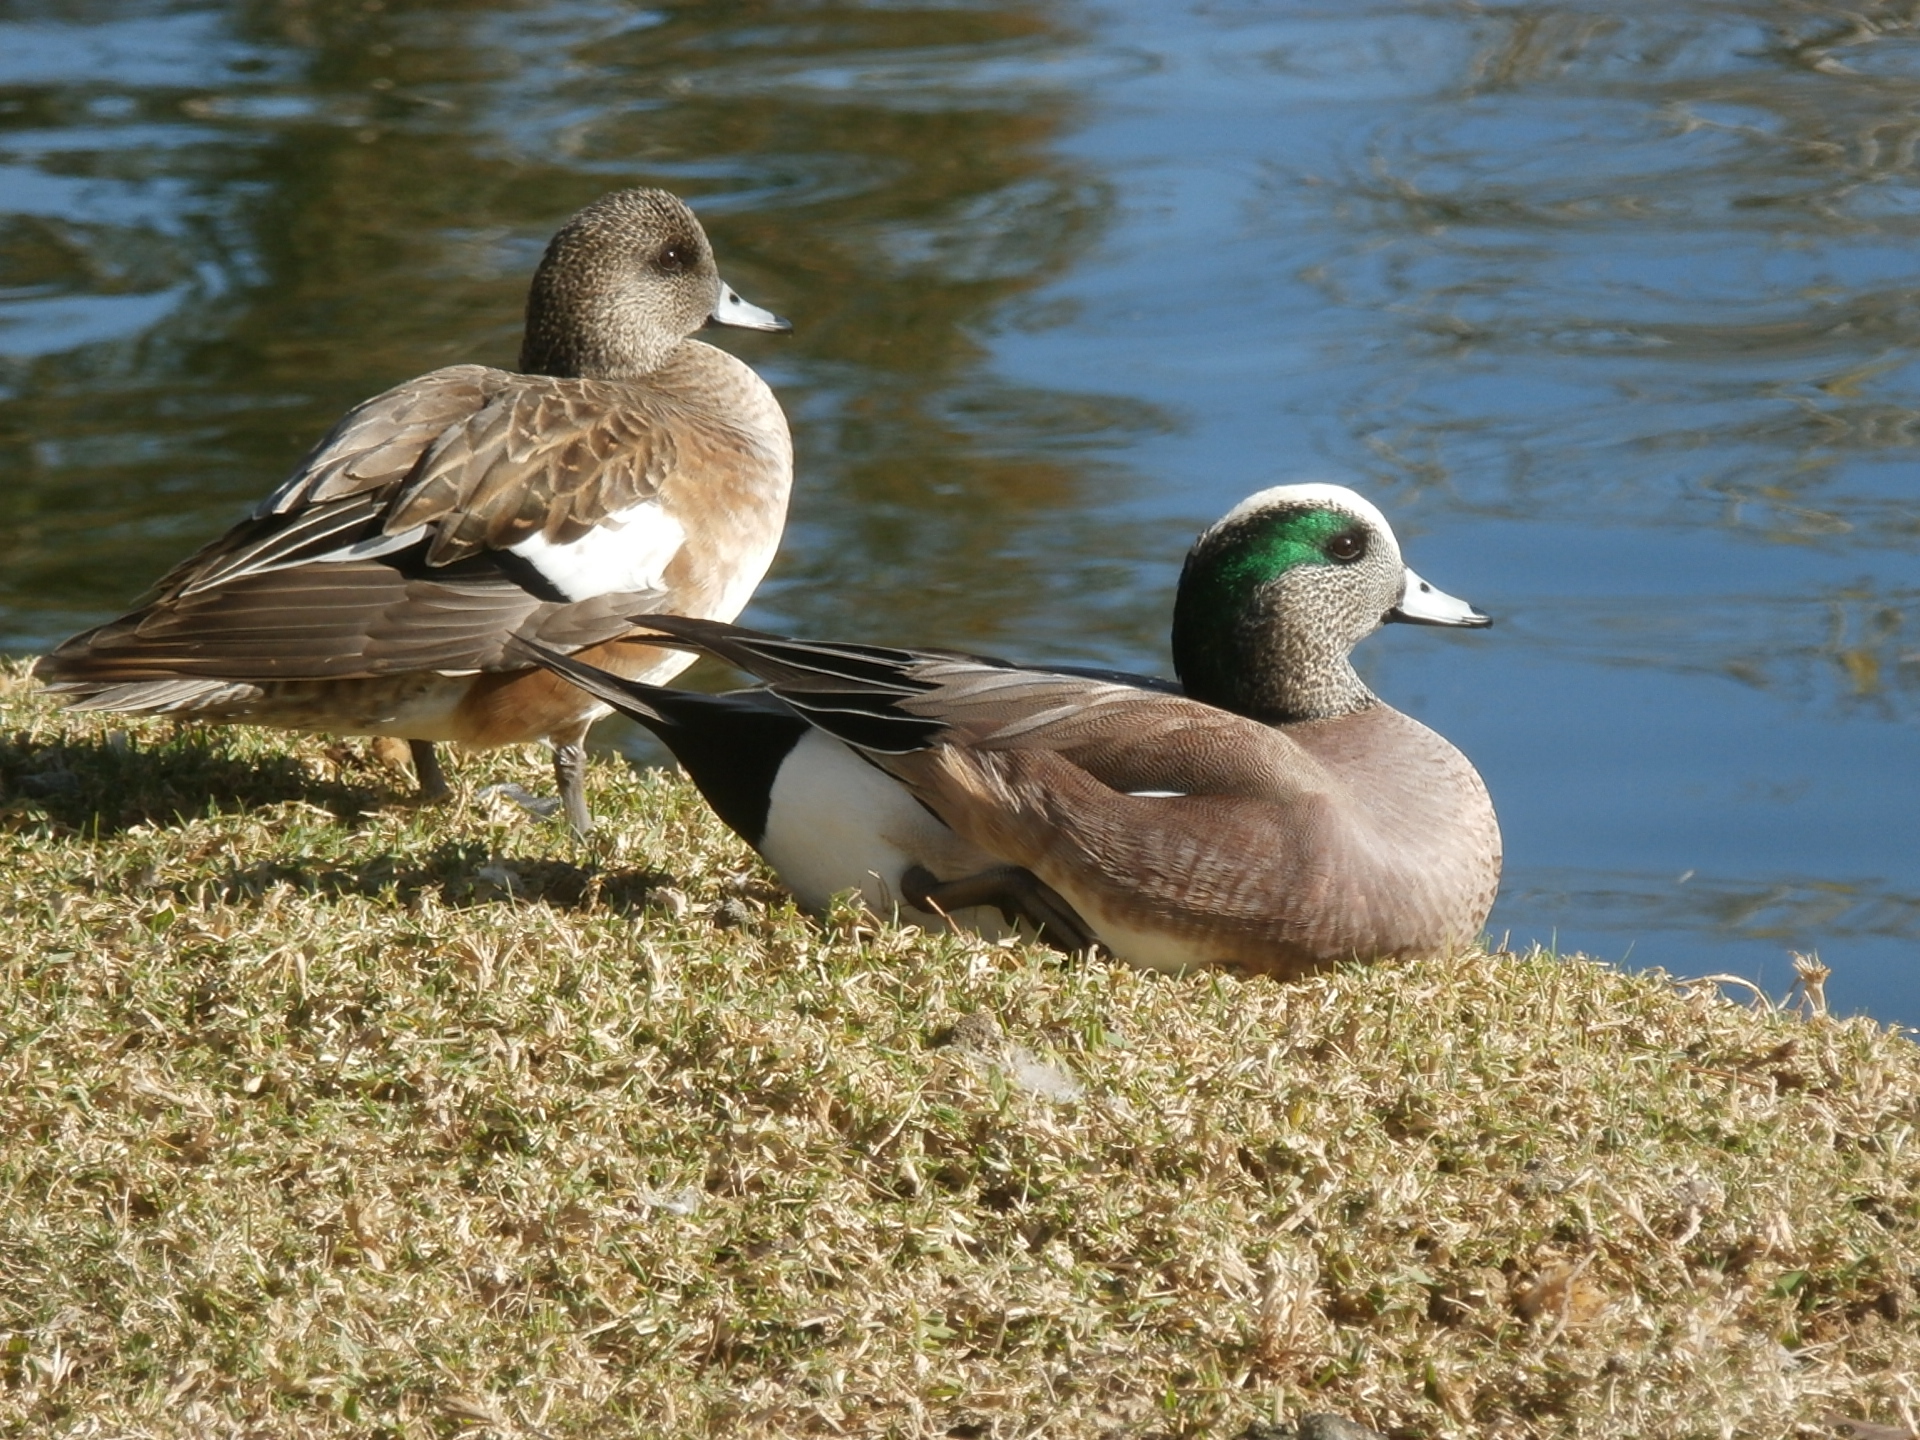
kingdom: Animalia
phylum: Chordata
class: Aves
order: Anseriformes
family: Anatidae
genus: Mareca
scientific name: Mareca americana
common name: American wigeon
